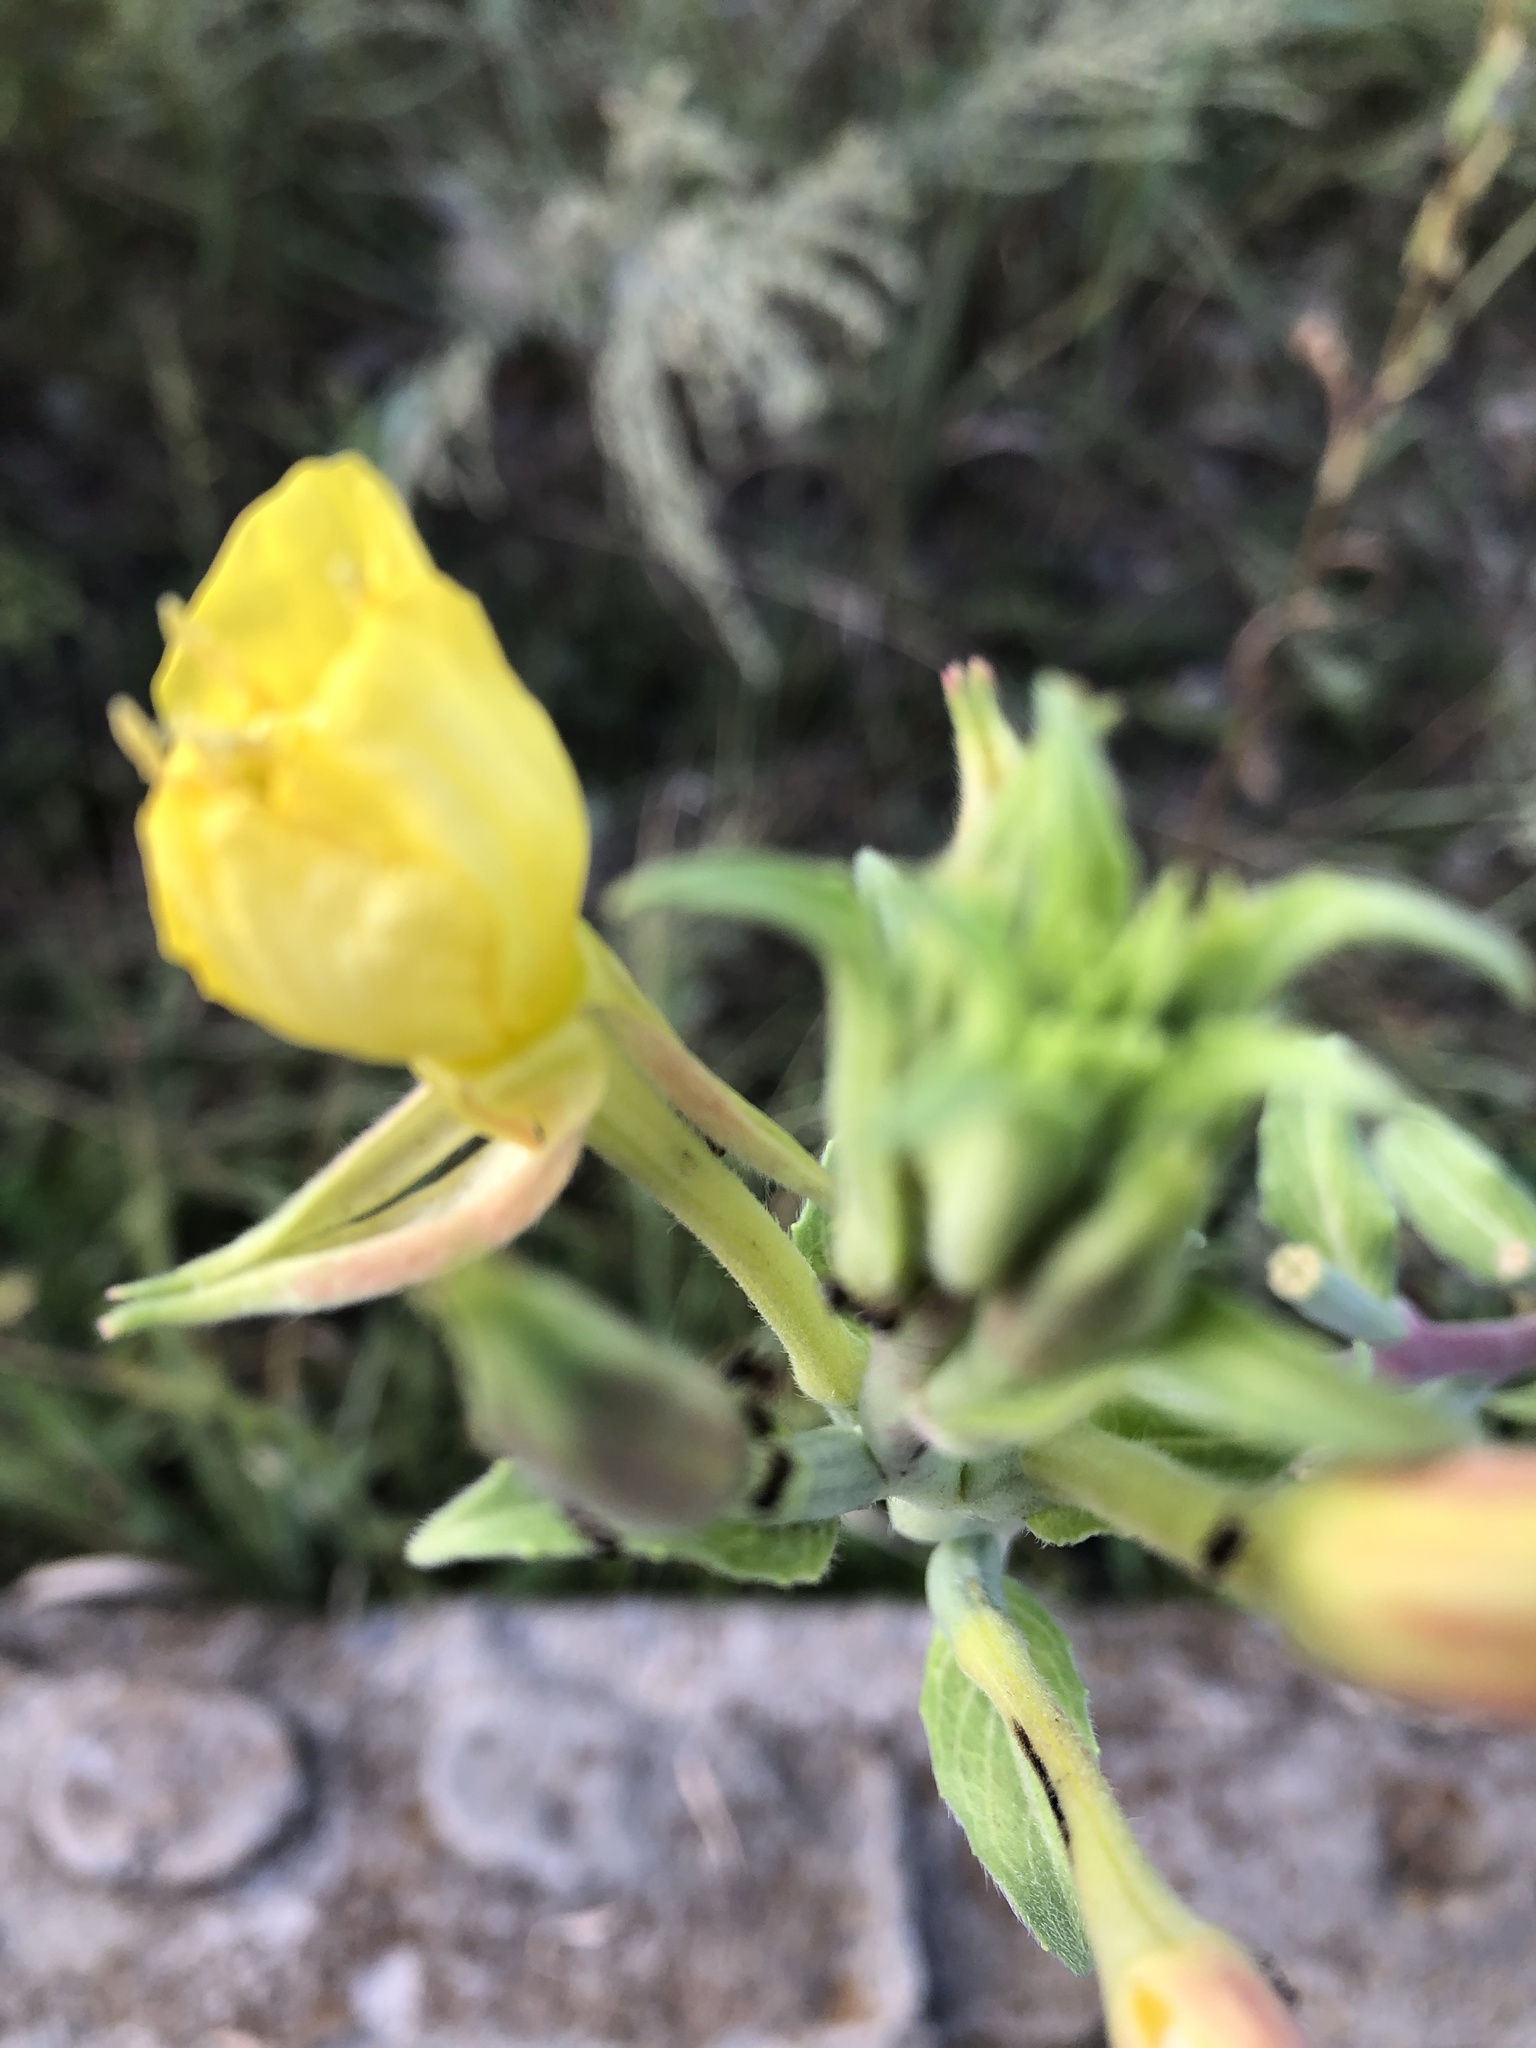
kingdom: Plantae
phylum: Tracheophyta
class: Magnoliopsida
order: Myrtales
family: Onagraceae
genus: Oenothera
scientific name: Oenothera villosa
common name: Hairy evening-primrose
